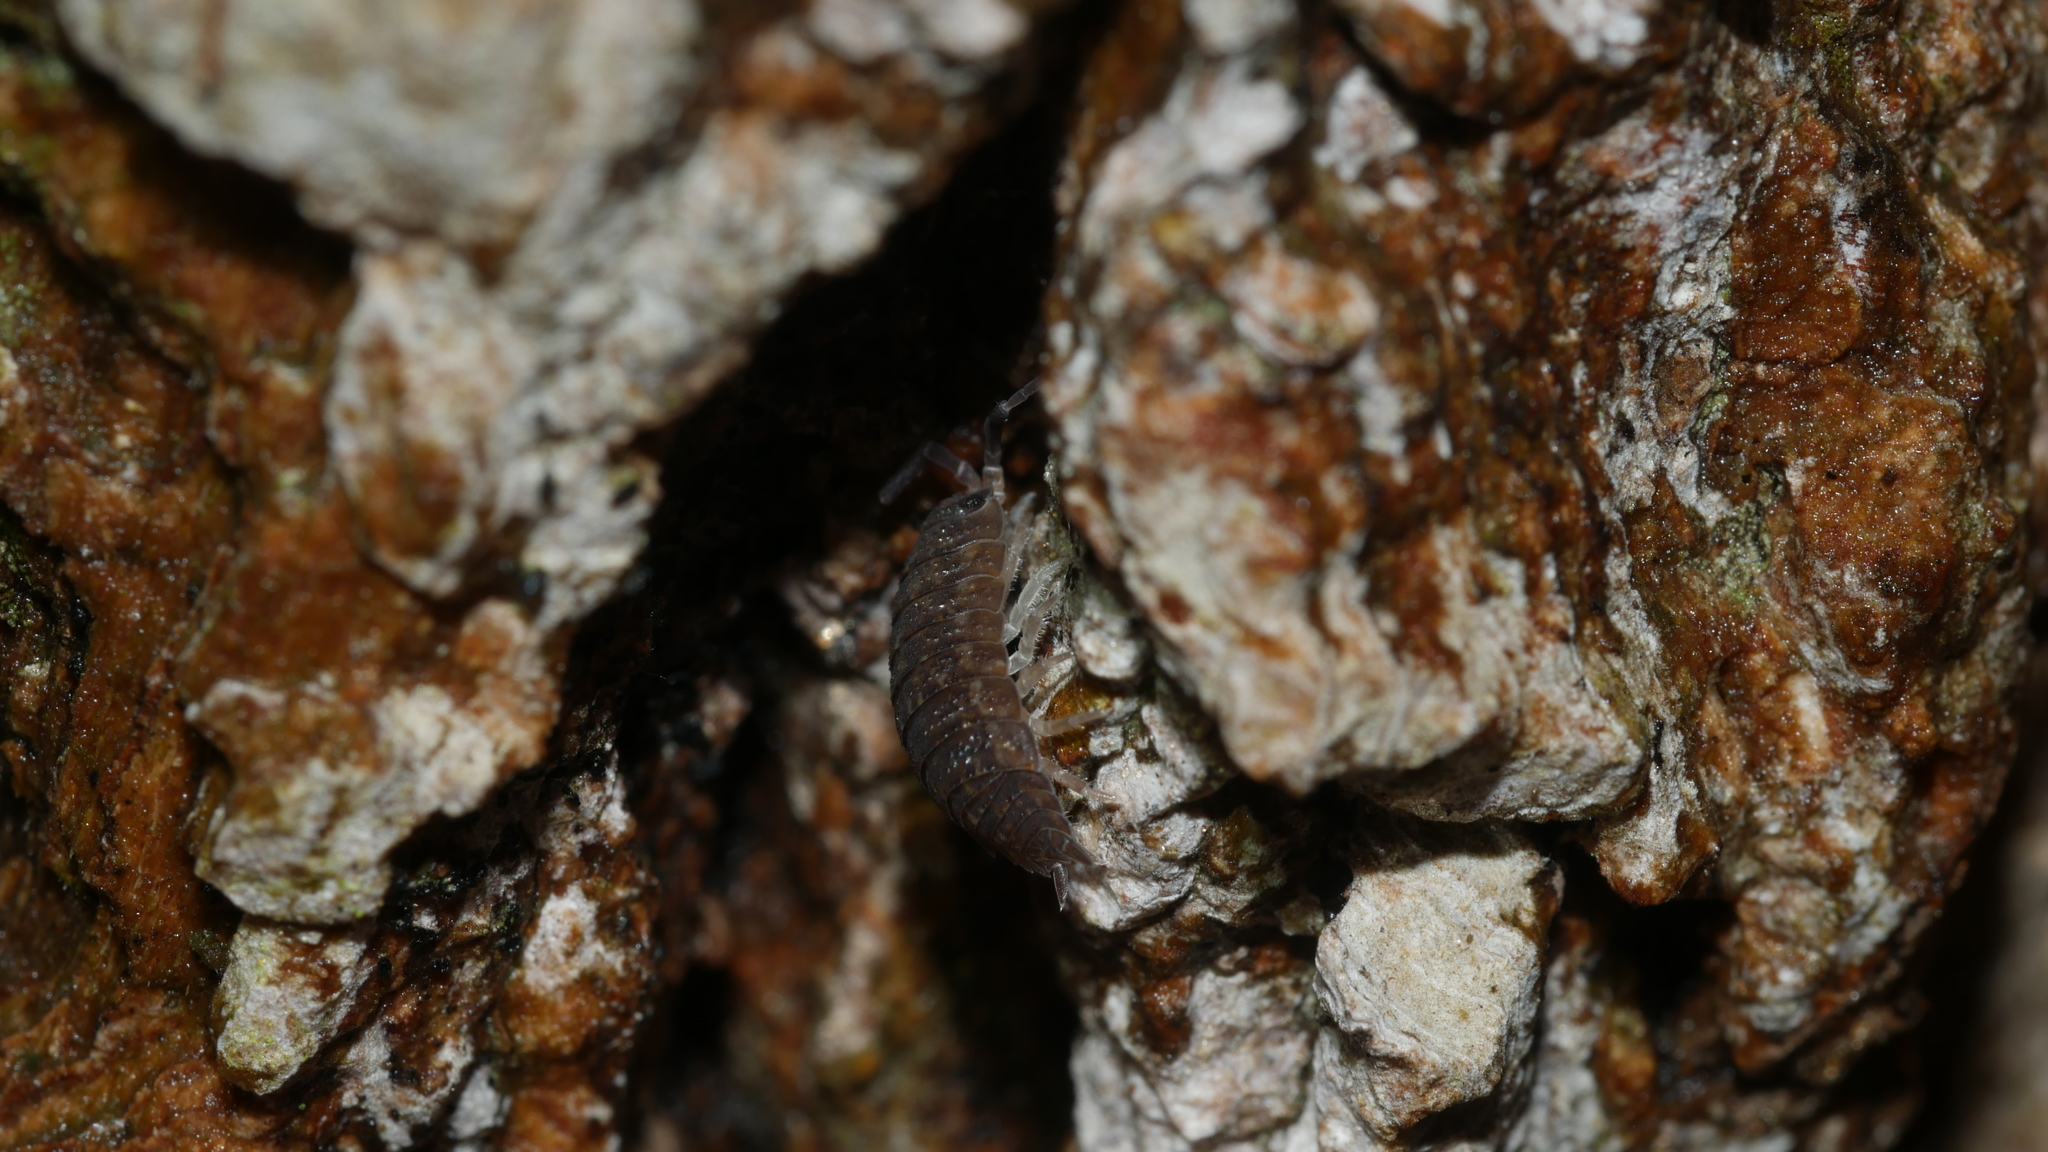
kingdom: Animalia
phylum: Arthropoda
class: Malacostraca
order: Isopoda
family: Porcellionidae
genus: Porcellio
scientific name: Porcellio scaber
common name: Common rough woodlouse
